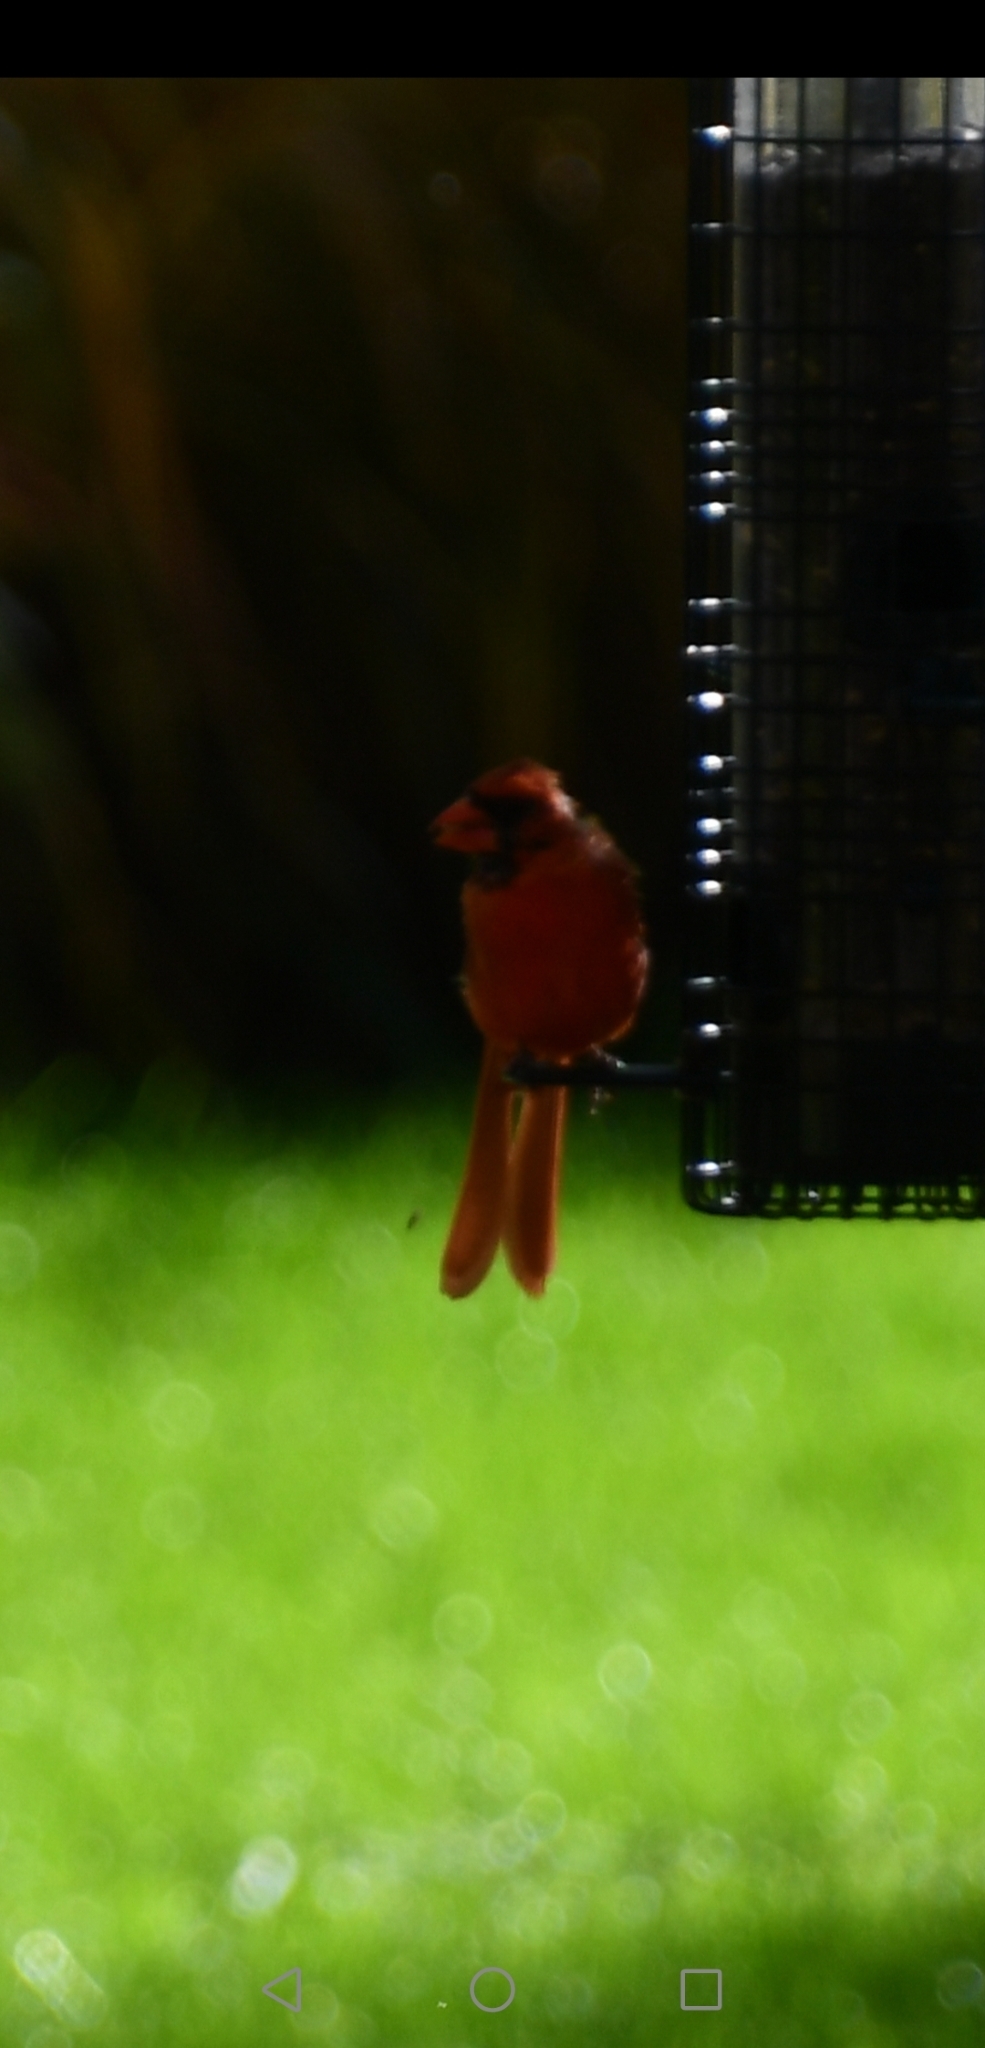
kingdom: Animalia
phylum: Chordata
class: Aves
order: Passeriformes
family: Cardinalidae
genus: Cardinalis
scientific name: Cardinalis cardinalis
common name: Northern cardinal
